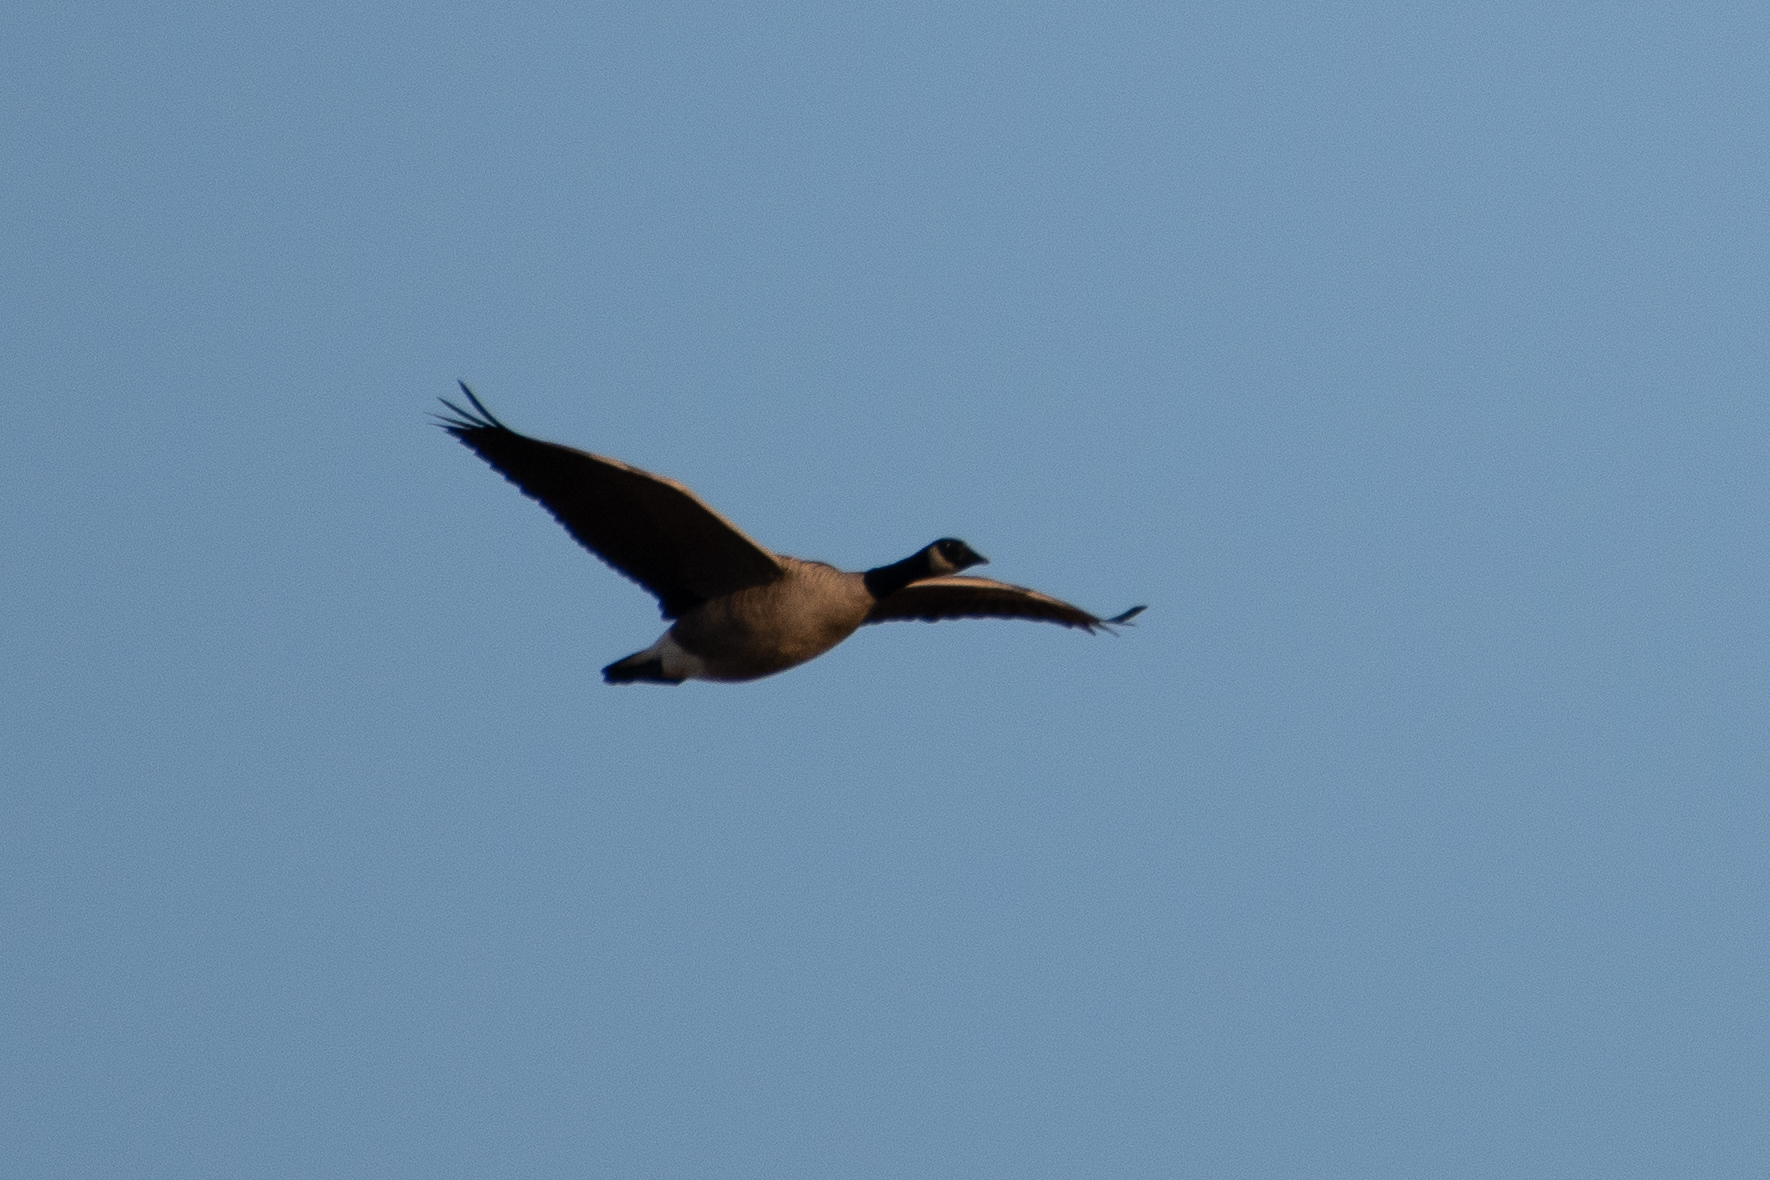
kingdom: Animalia
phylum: Chordata
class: Aves
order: Anseriformes
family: Anatidae
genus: Branta
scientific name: Branta canadensis
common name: Canada goose
